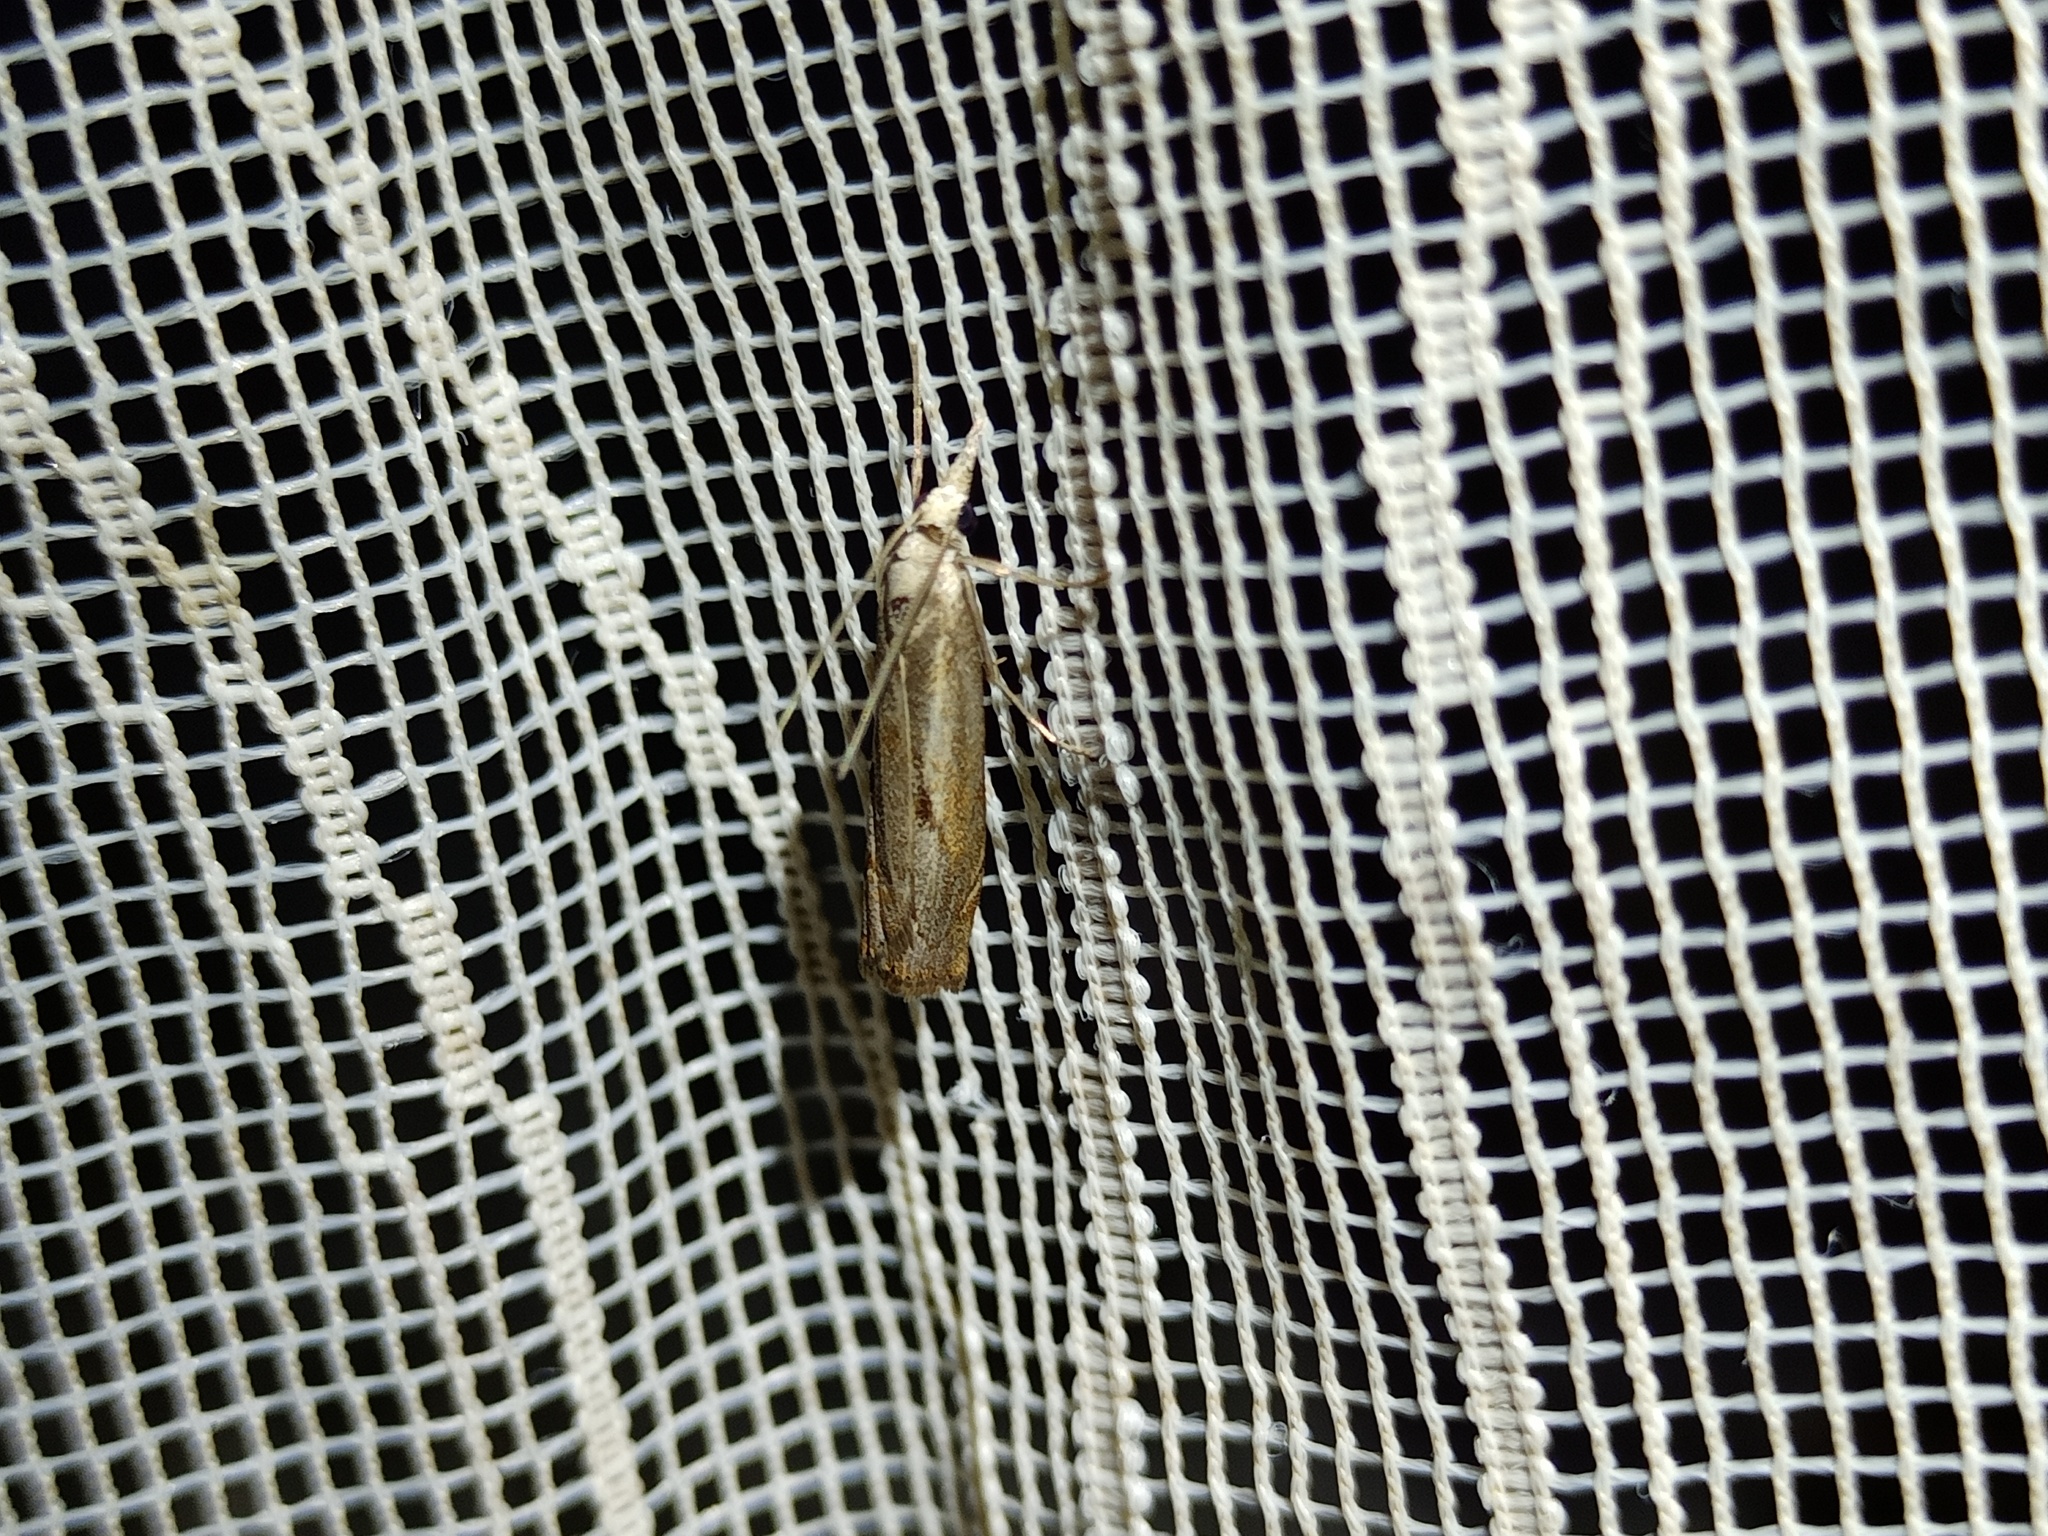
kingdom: Animalia
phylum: Arthropoda
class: Insecta
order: Lepidoptera
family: Crambidae
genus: Agriphila
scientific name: Agriphila geniculea
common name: Elbow-stripe grass-veneer
